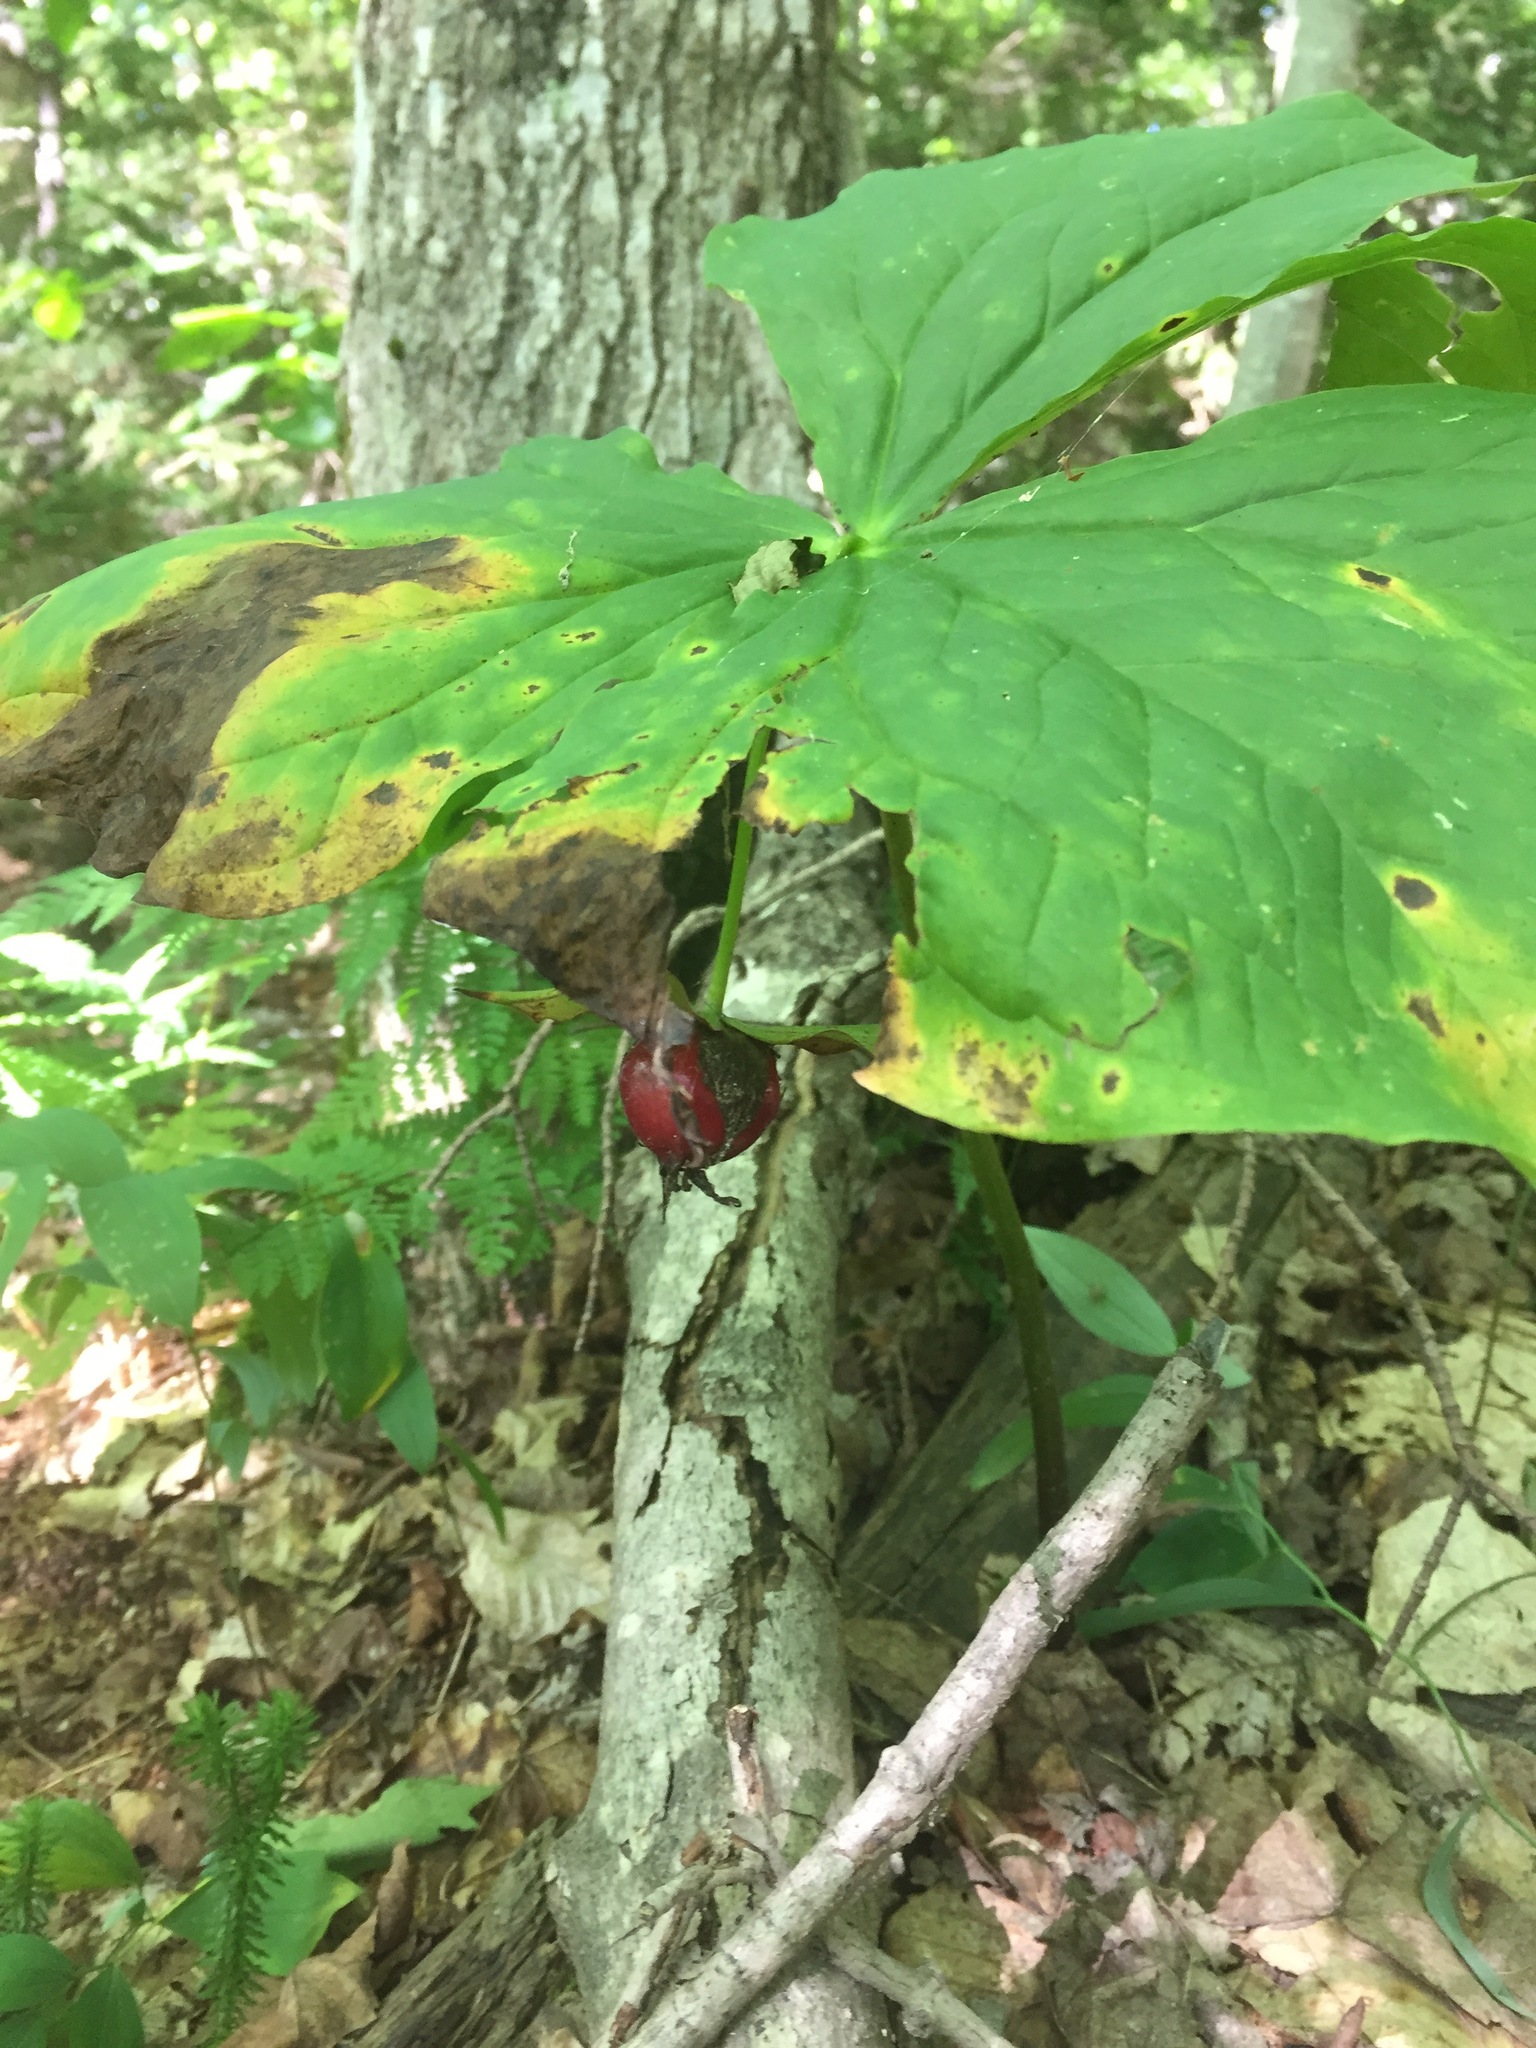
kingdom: Plantae
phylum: Tracheophyta
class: Liliopsida
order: Liliales
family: Melanthiaceae
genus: Trillium
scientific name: Trillium erectum
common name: Purple trillium
